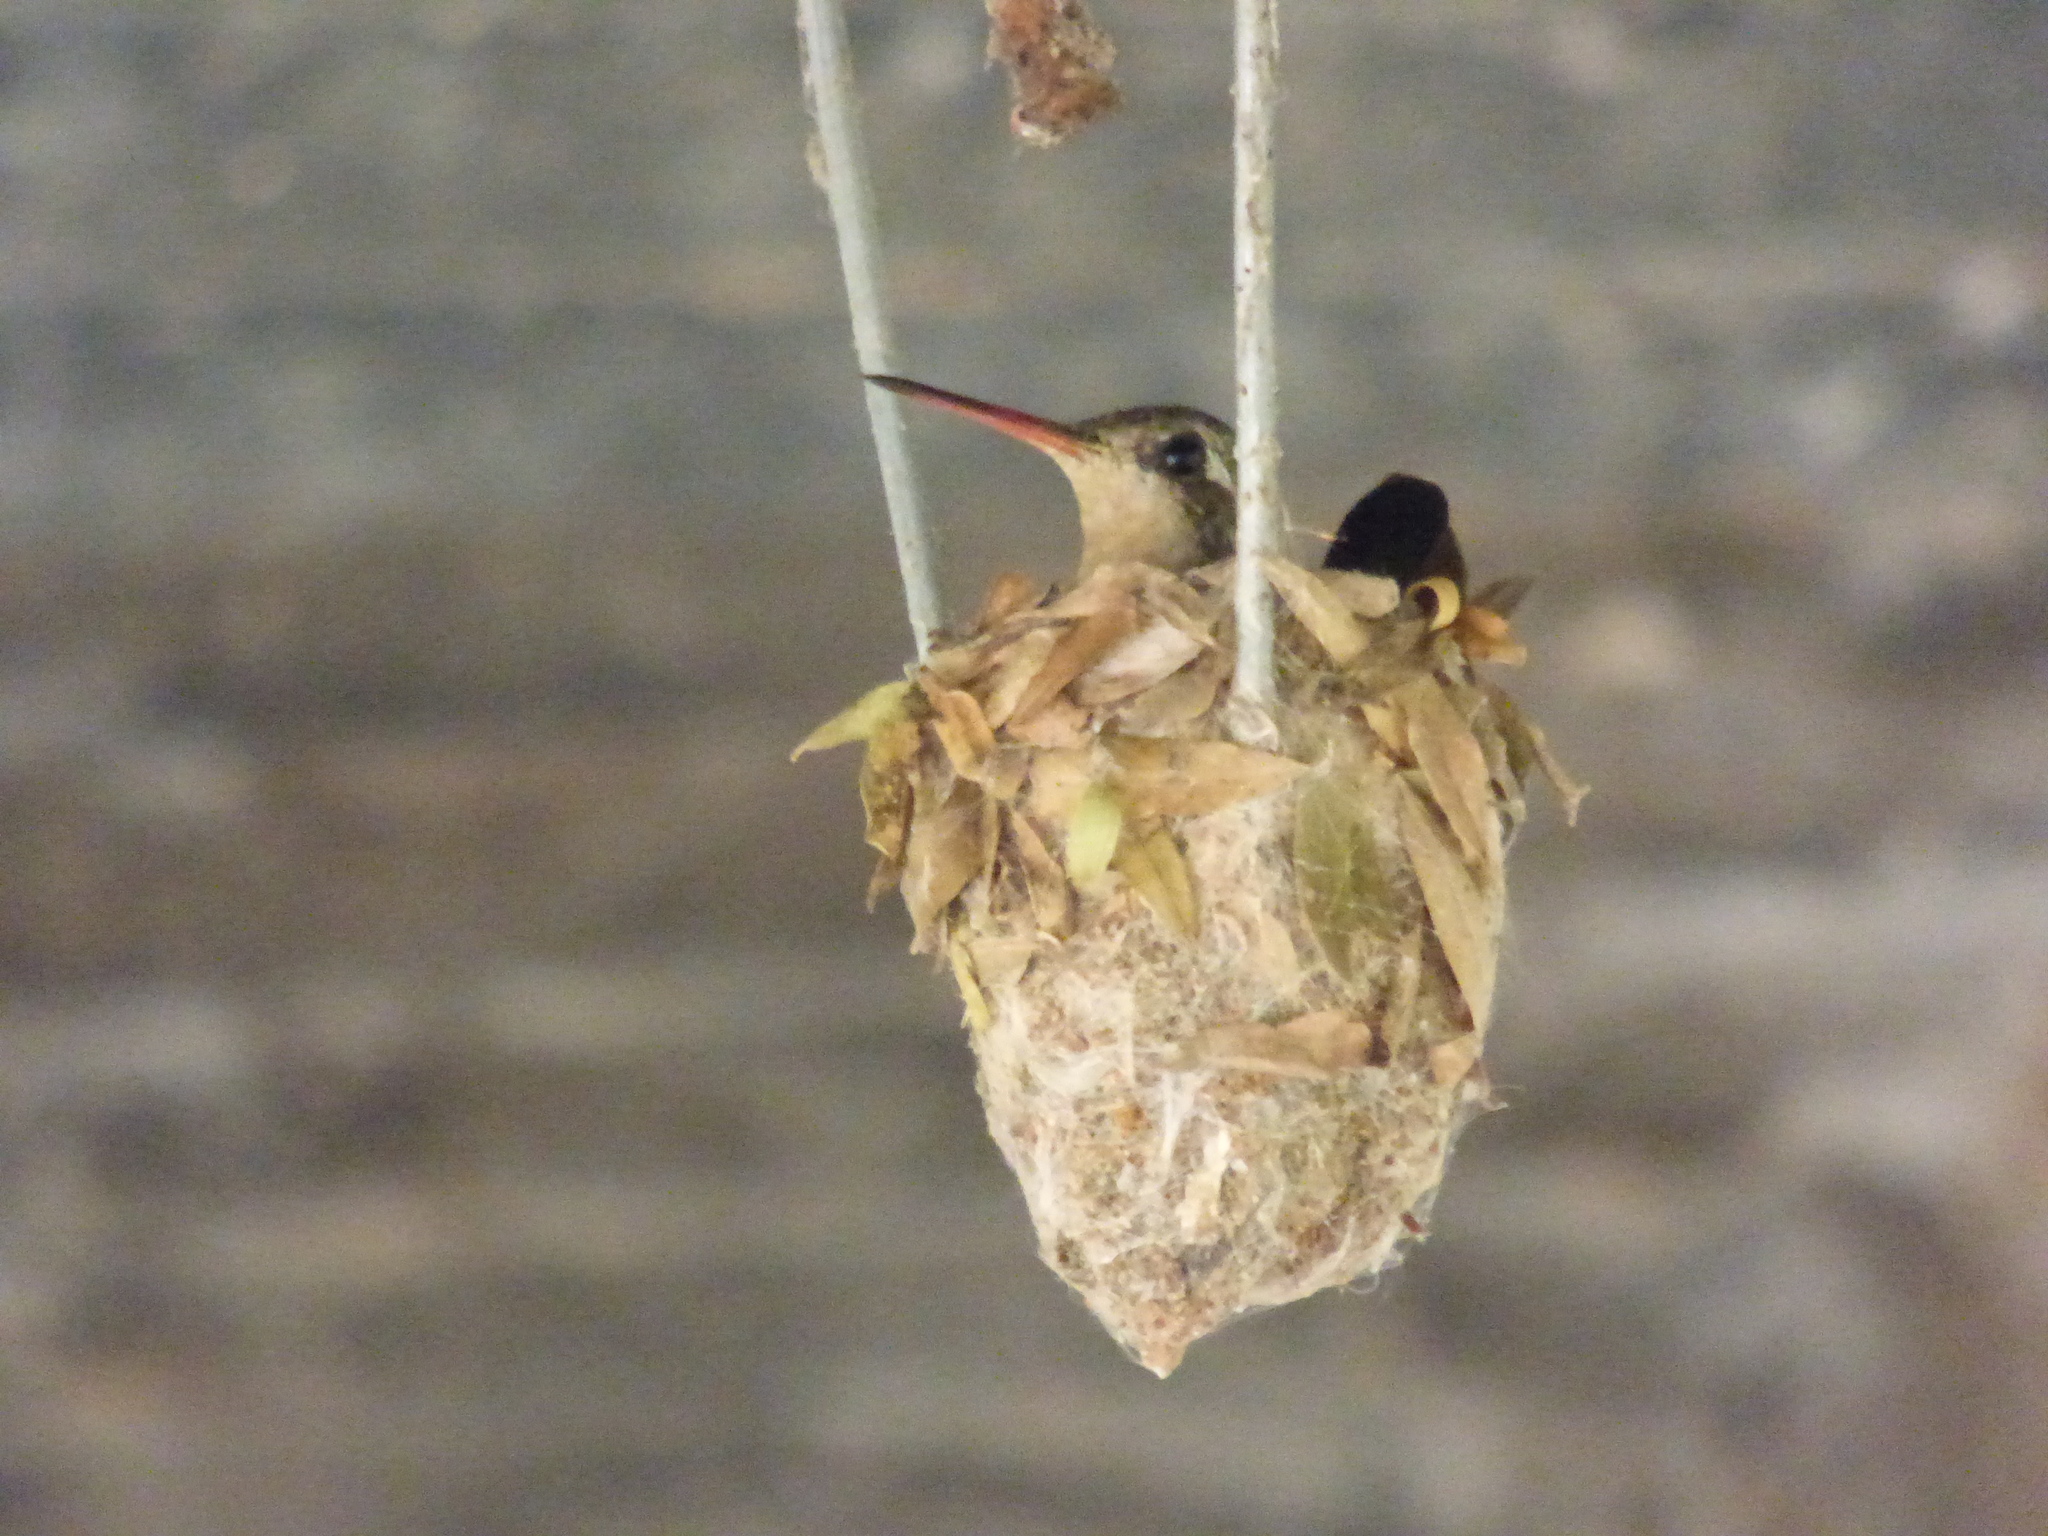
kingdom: Animalia
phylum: Chordata
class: Aves
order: Apodiformes
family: Trochilidae
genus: Chlorostilbon
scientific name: Chlorostilbon lucidus
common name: Glittering-bellied emerald
